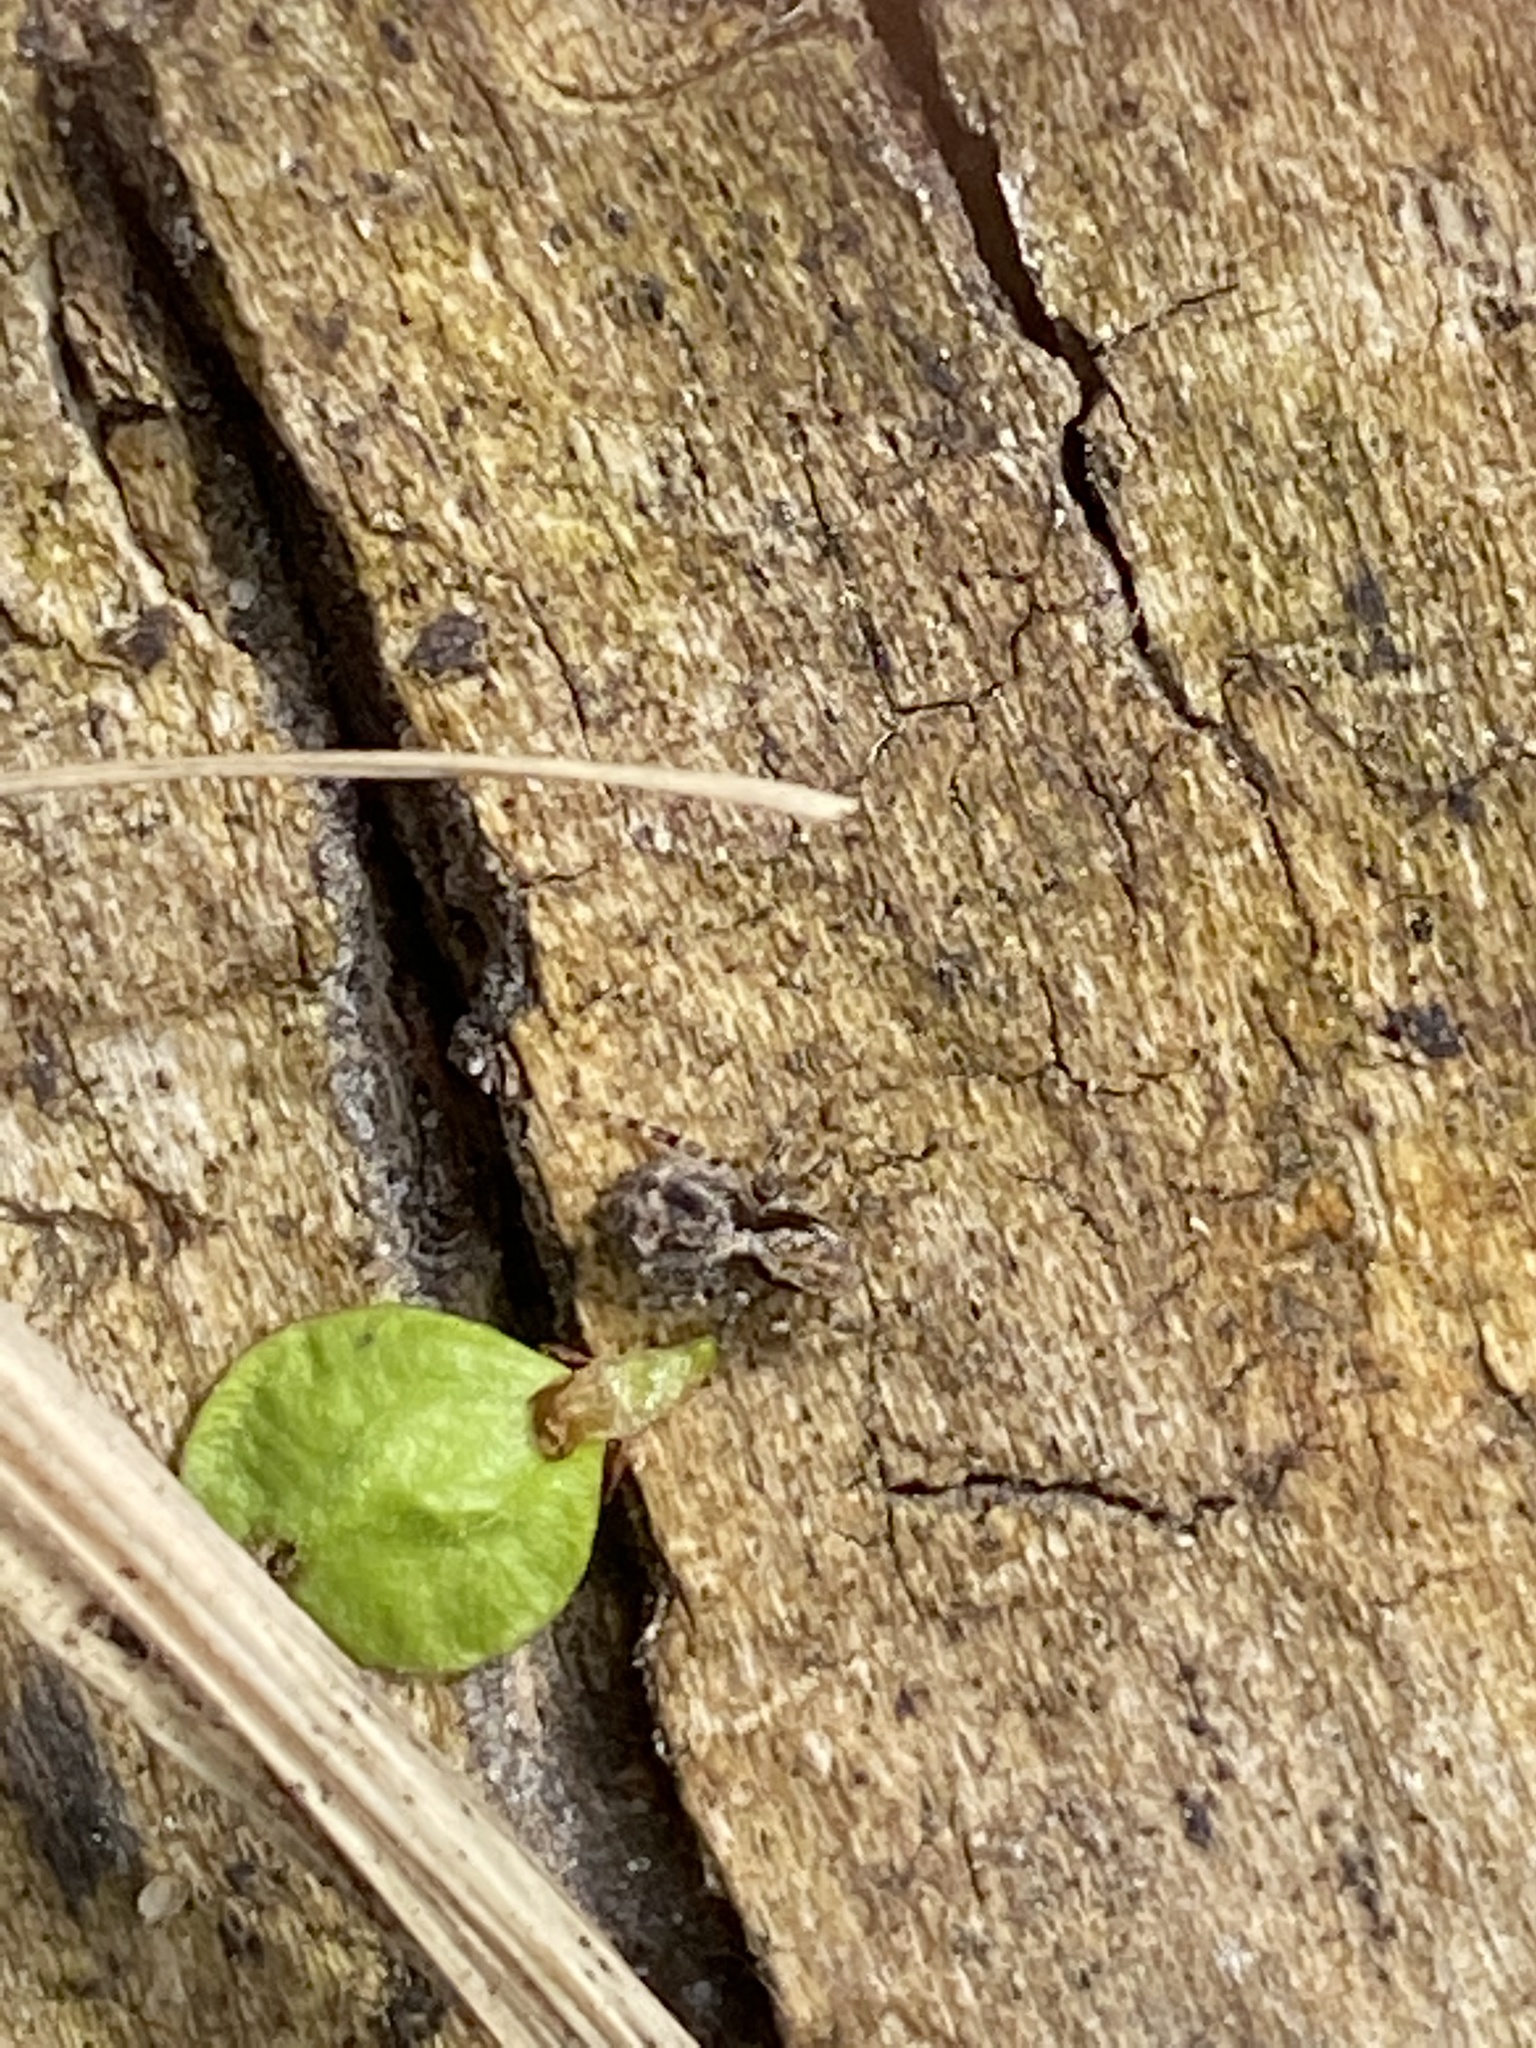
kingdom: Animalia
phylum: Arthropoda
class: Arachnida
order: Araneae
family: Salticidae
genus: Naphrys
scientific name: Naphrys pulex
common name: Flea jumping spider
